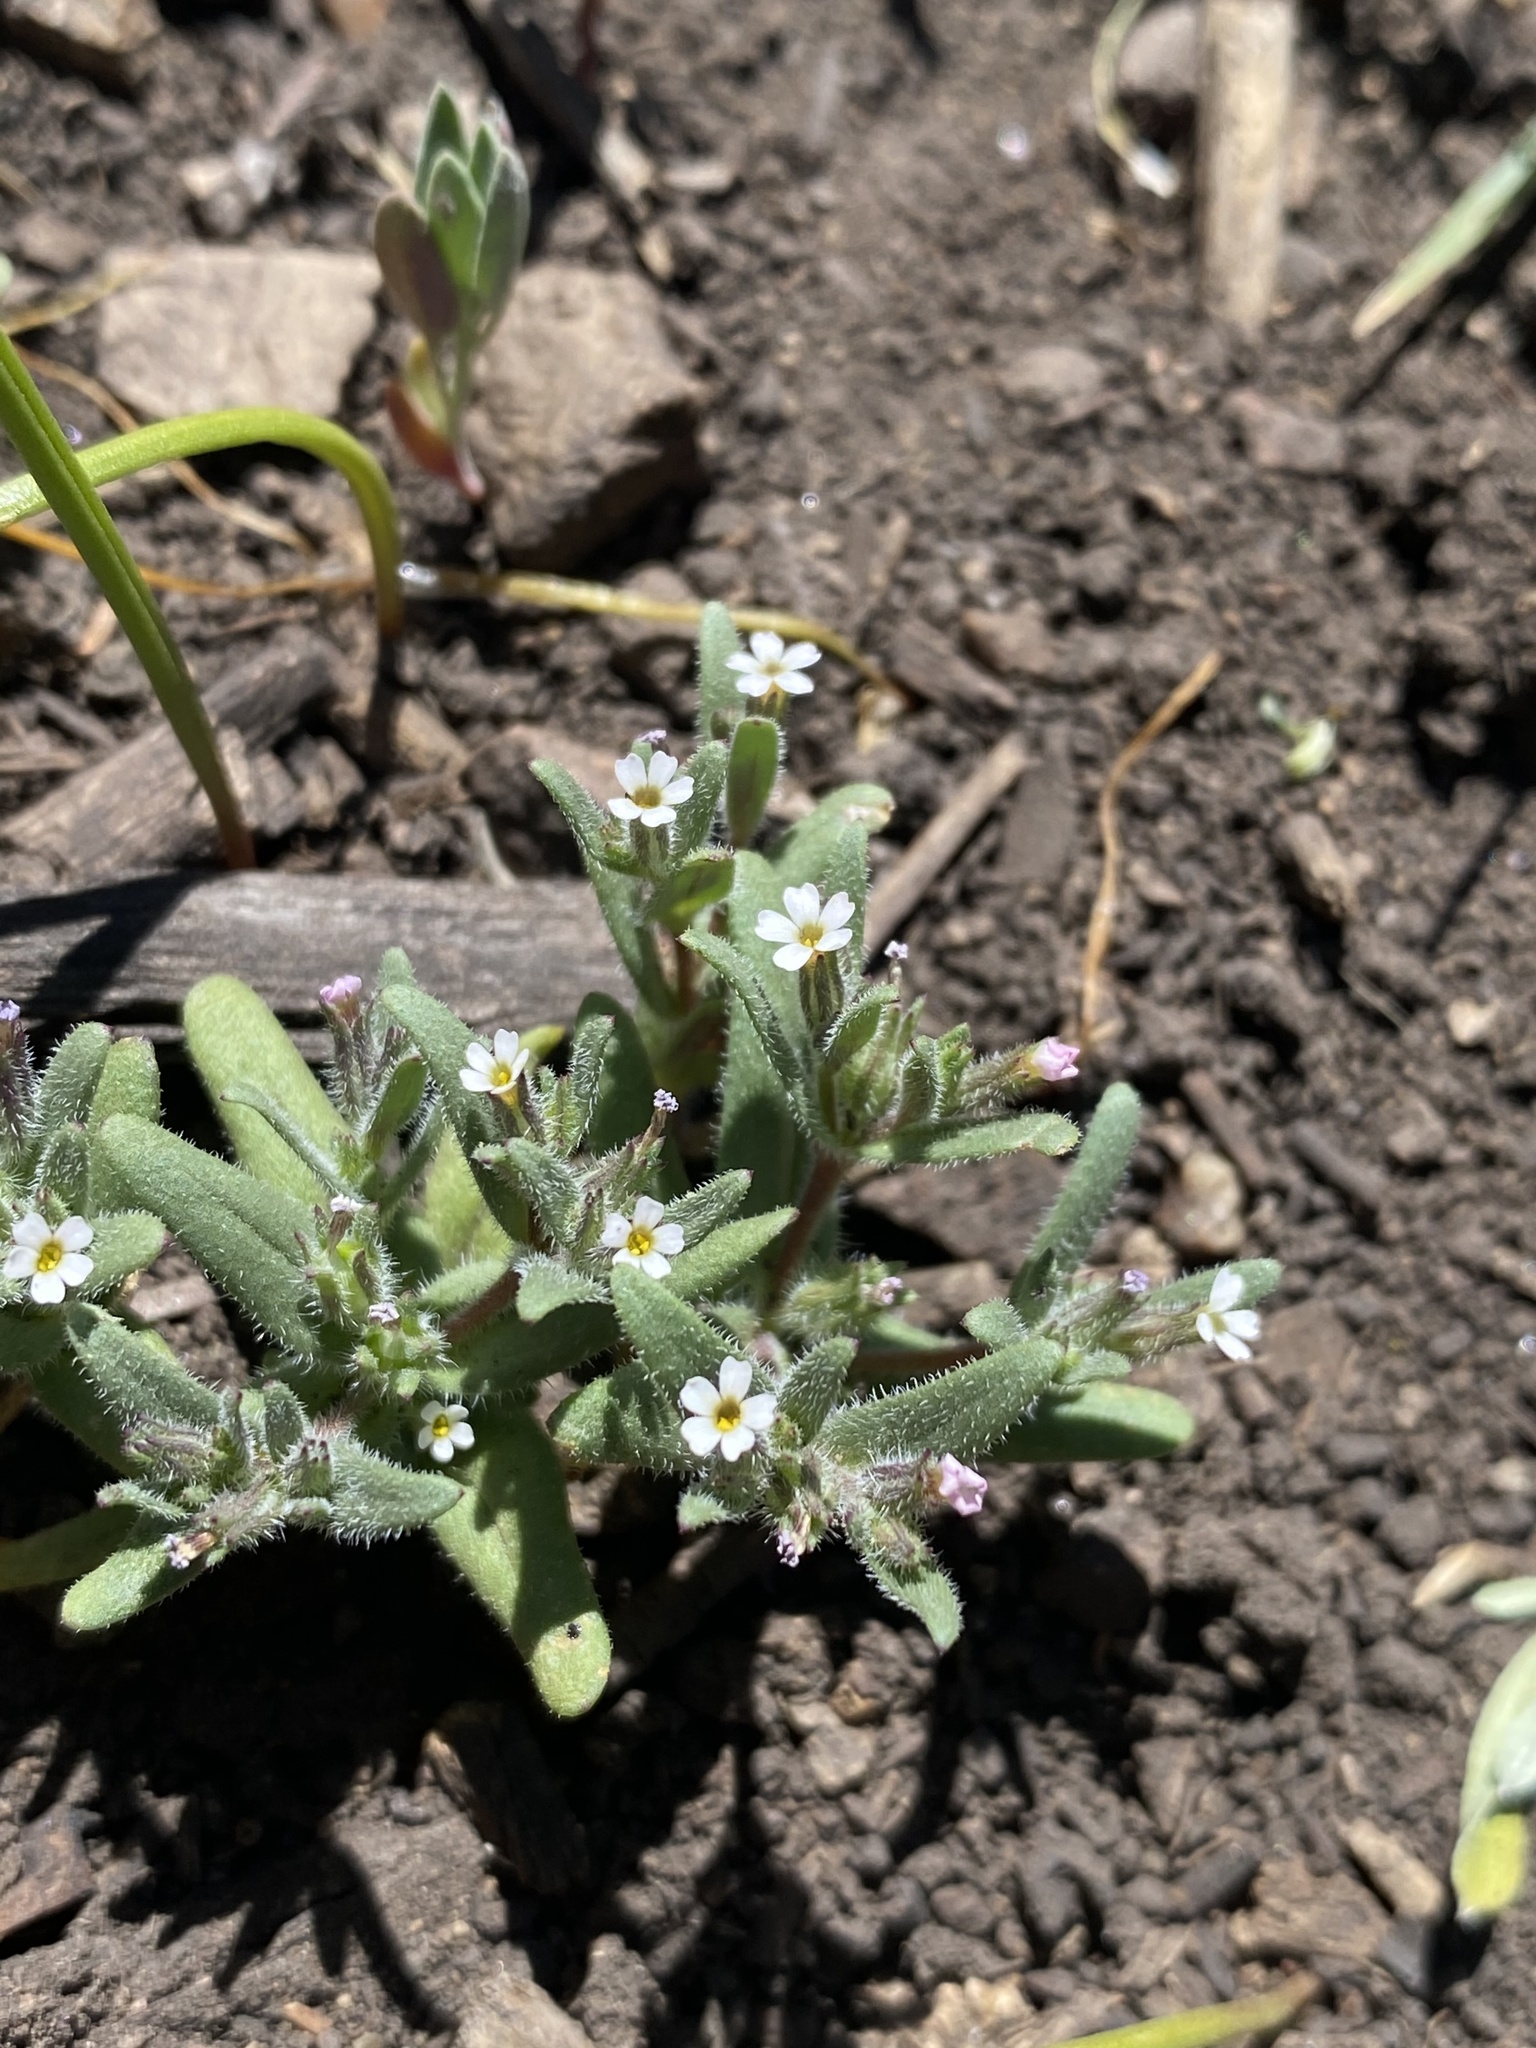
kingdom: Plantae
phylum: Tracheophyta
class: Magnoliopsida
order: Ericales
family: Polemoniaceae
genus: Phlox
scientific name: Phlox gracilis
